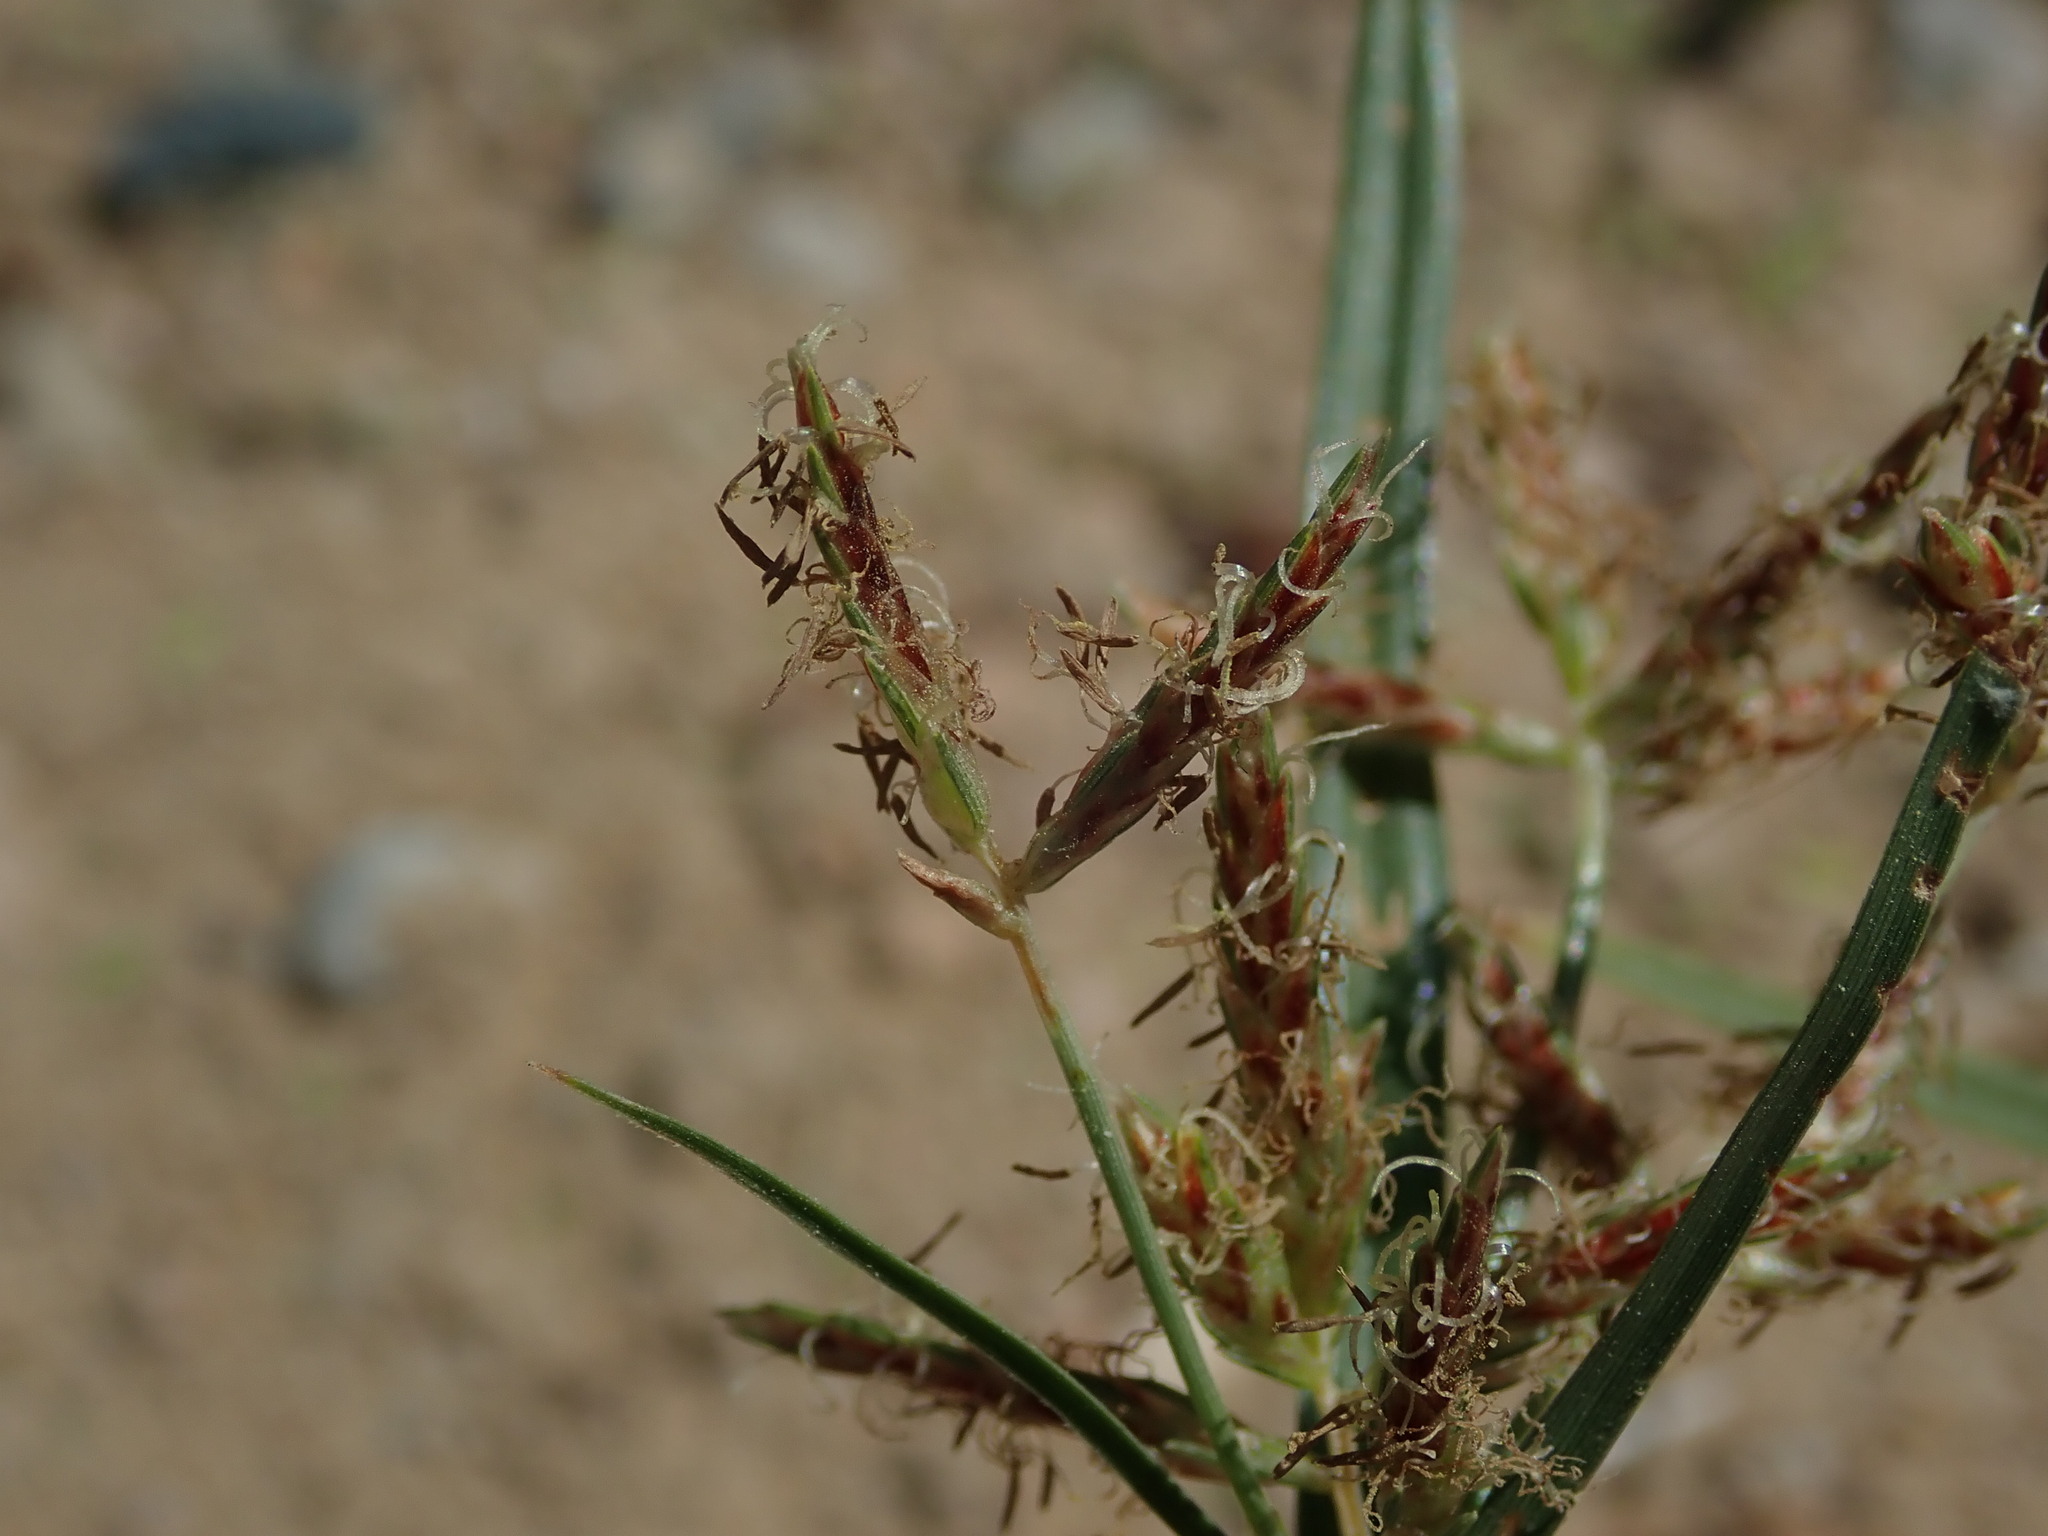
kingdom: Plantae
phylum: Tracheophyta
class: Liliopsida
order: Poales
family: Cyperaceae
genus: Cyperus
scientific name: Cyperus rotundus
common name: Nutgrass
